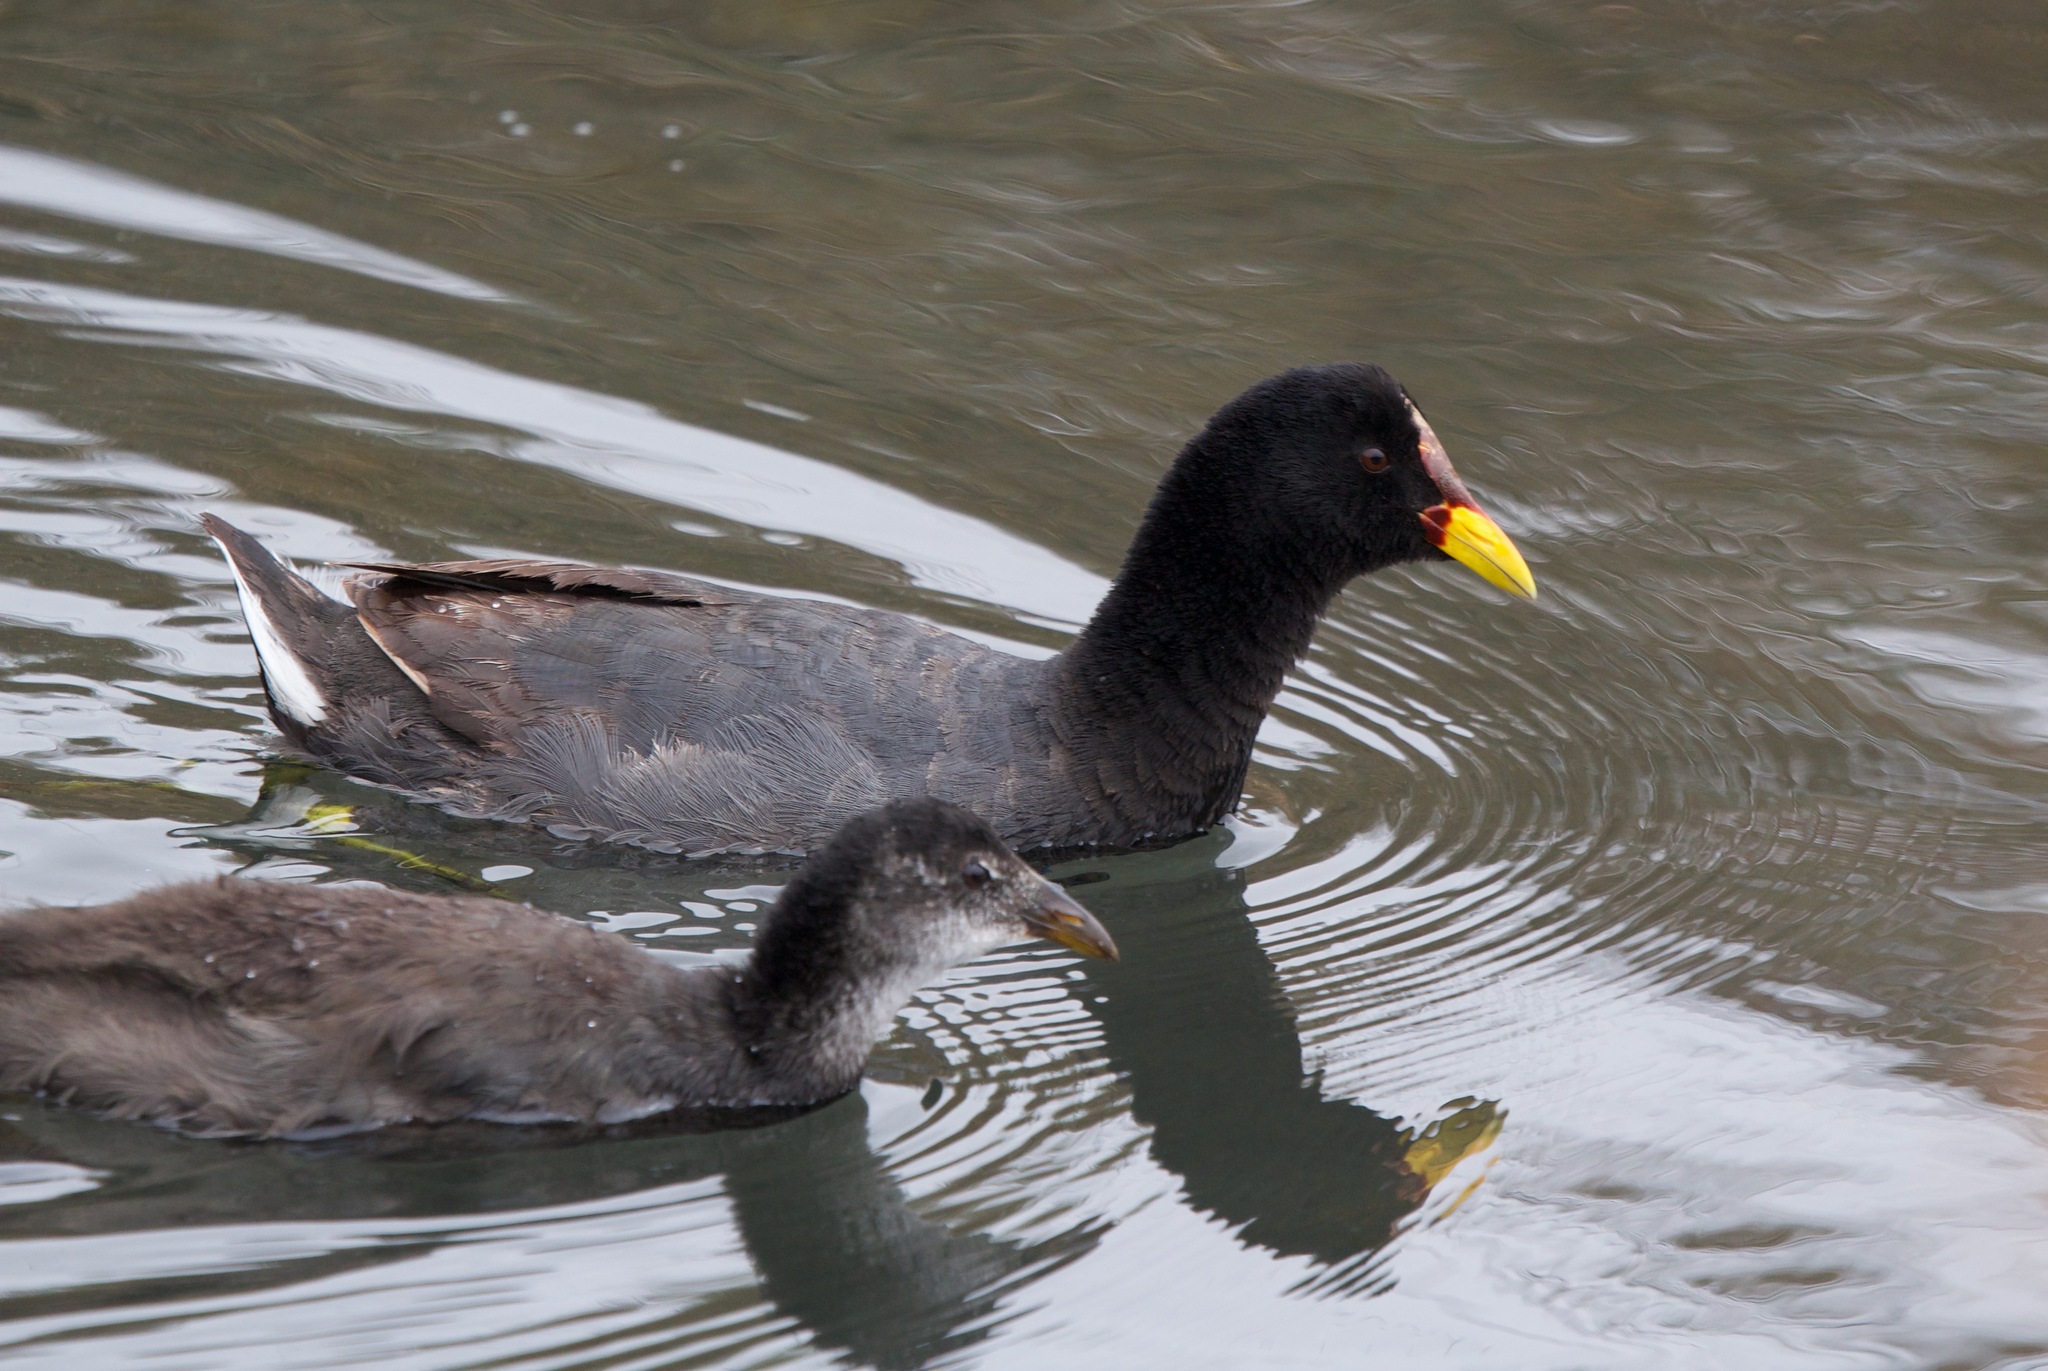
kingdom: Animalia
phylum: Chordata
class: Aves
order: Gruiformes
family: Rallidae
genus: Fulica
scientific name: Fulica rufifrons
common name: Red-fronted coot
